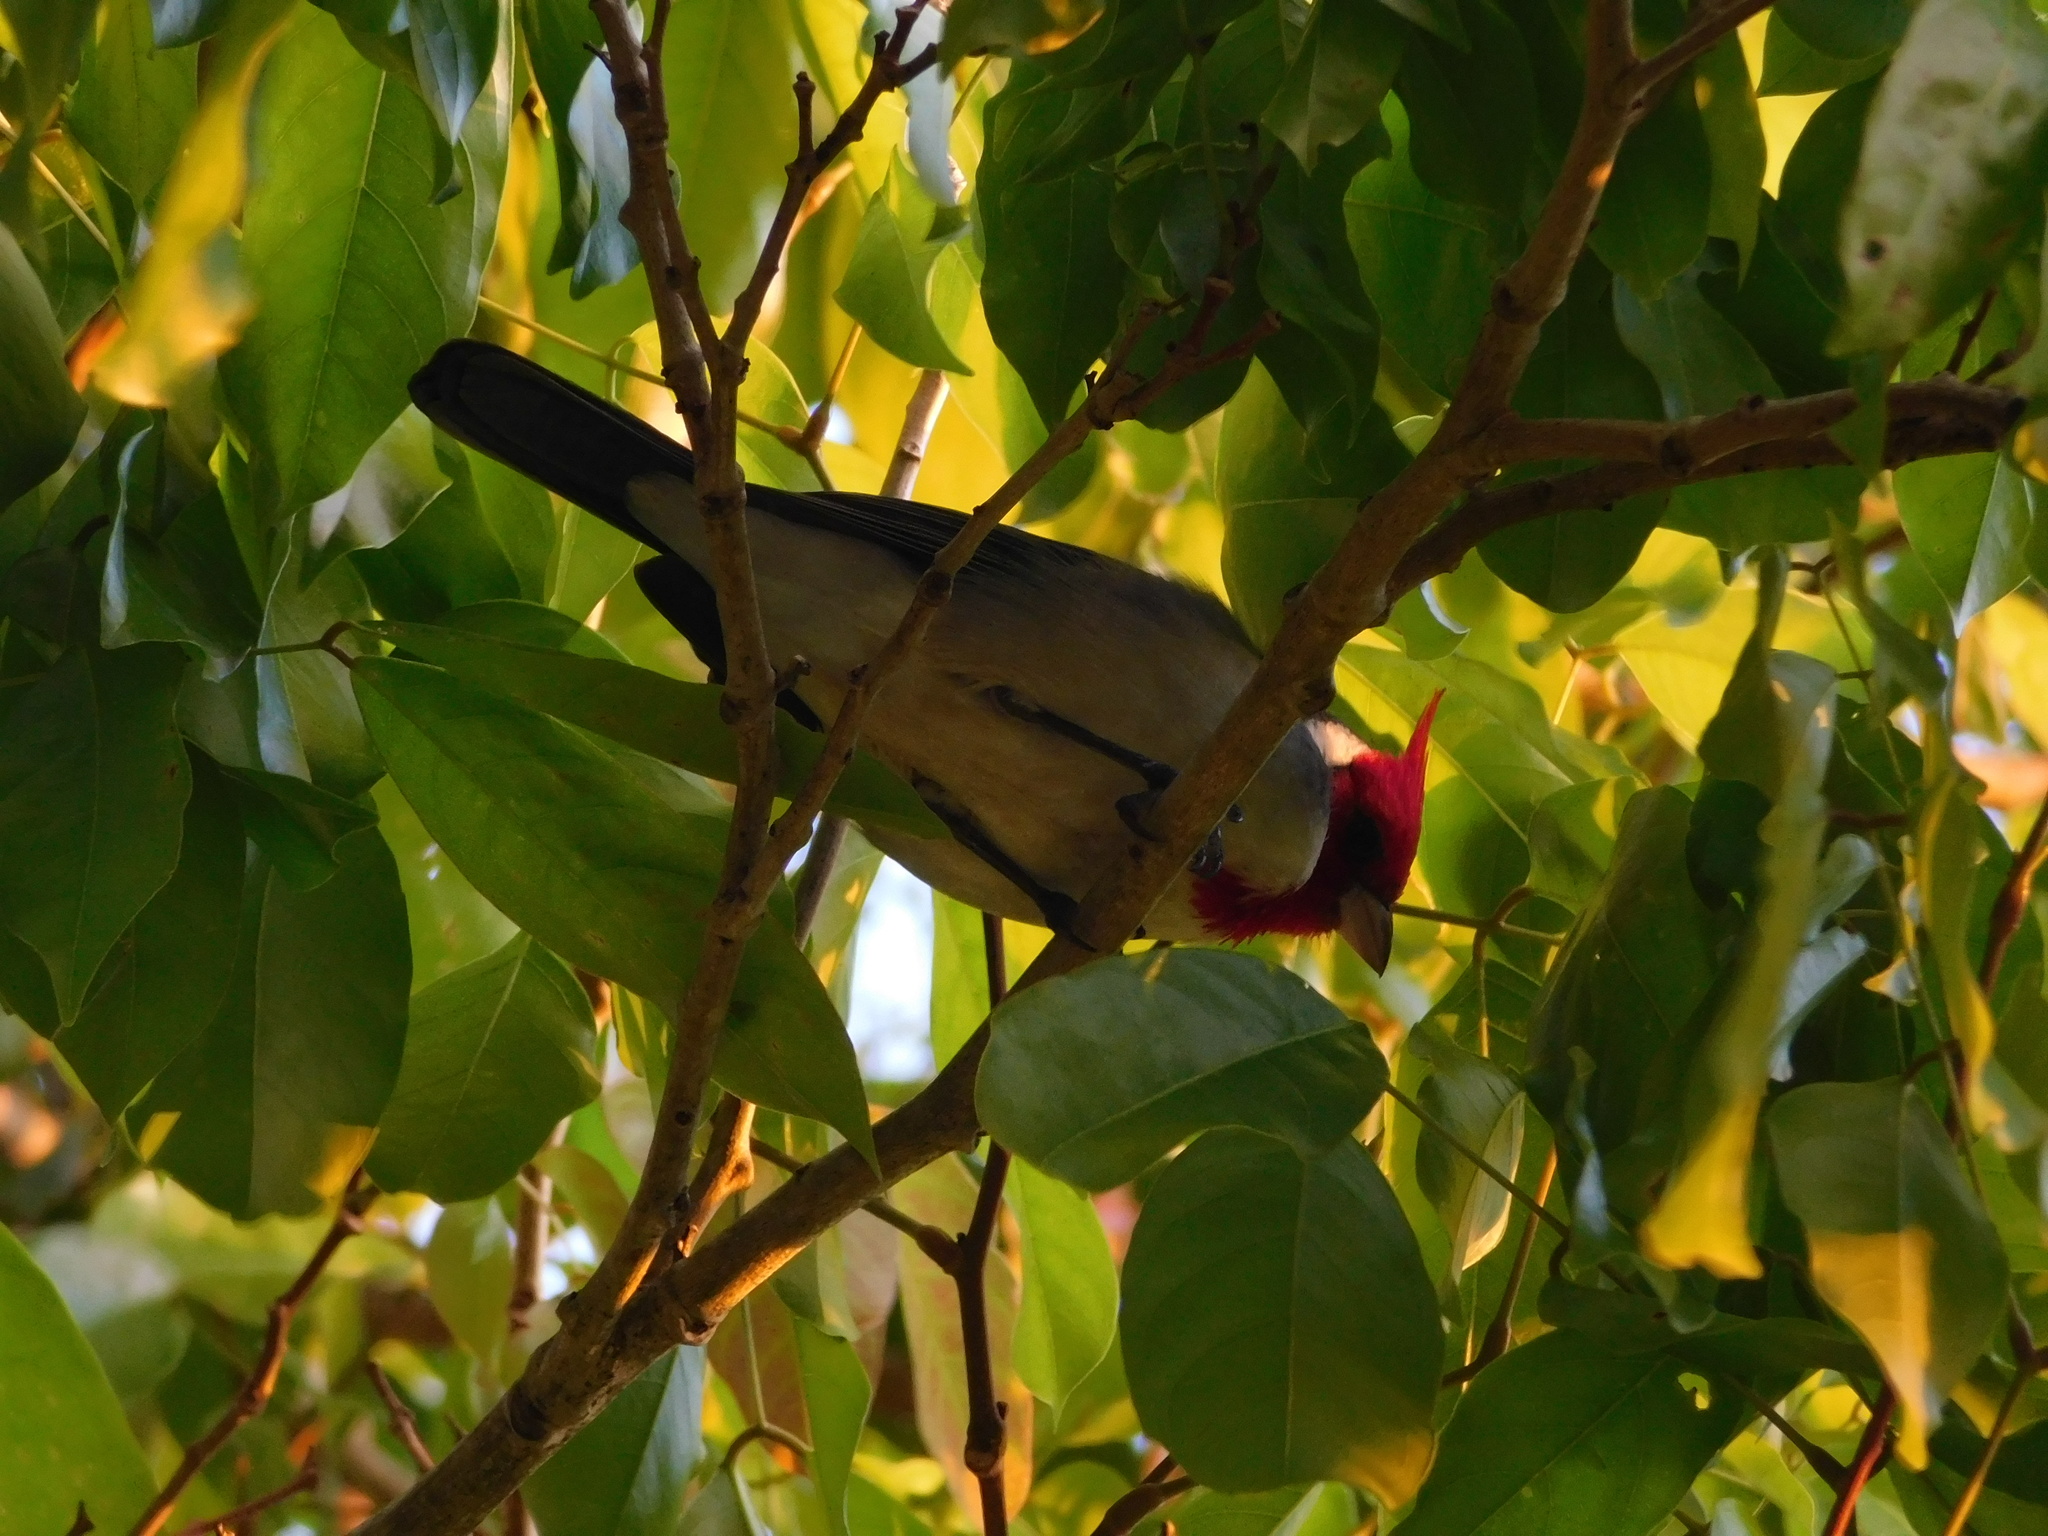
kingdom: Animalia
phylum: Chordata
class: Aves
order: Passeriformes
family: Thraupidae
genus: Paroaria
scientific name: Paroaria coronata
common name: Red-crested cardinal
